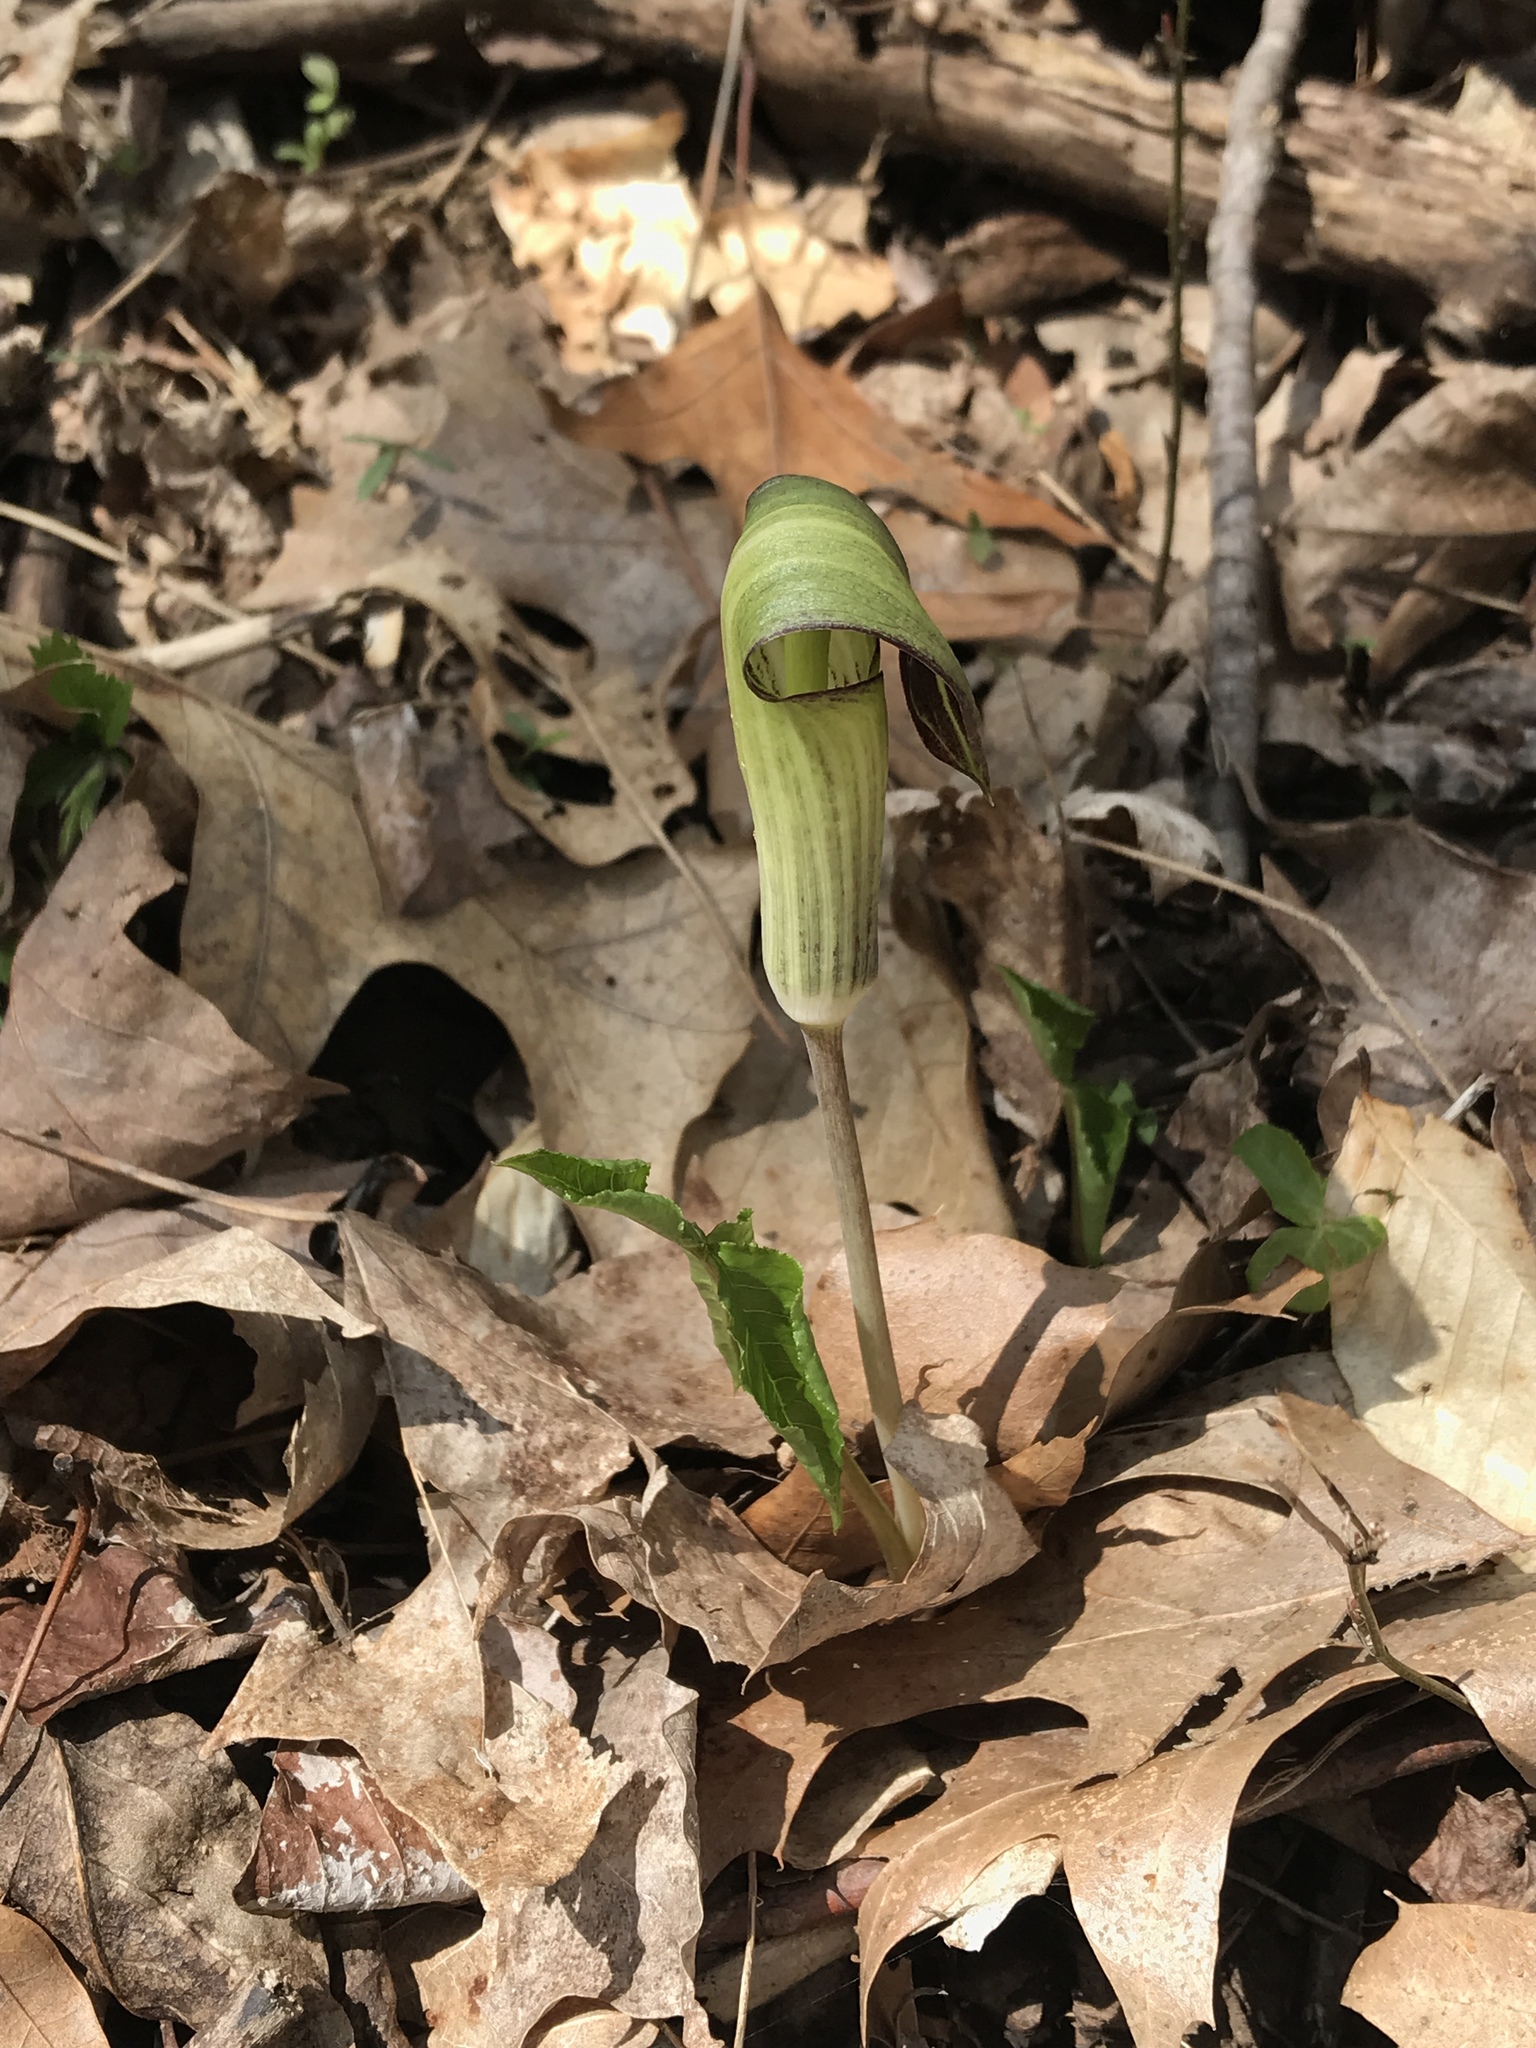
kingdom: Plantae
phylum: Tracheophyta
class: Liliopsida
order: Alismatales
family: Araceae
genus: Arisaema
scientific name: Arisaema triphyllum
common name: Jack-in-the-pulpit
